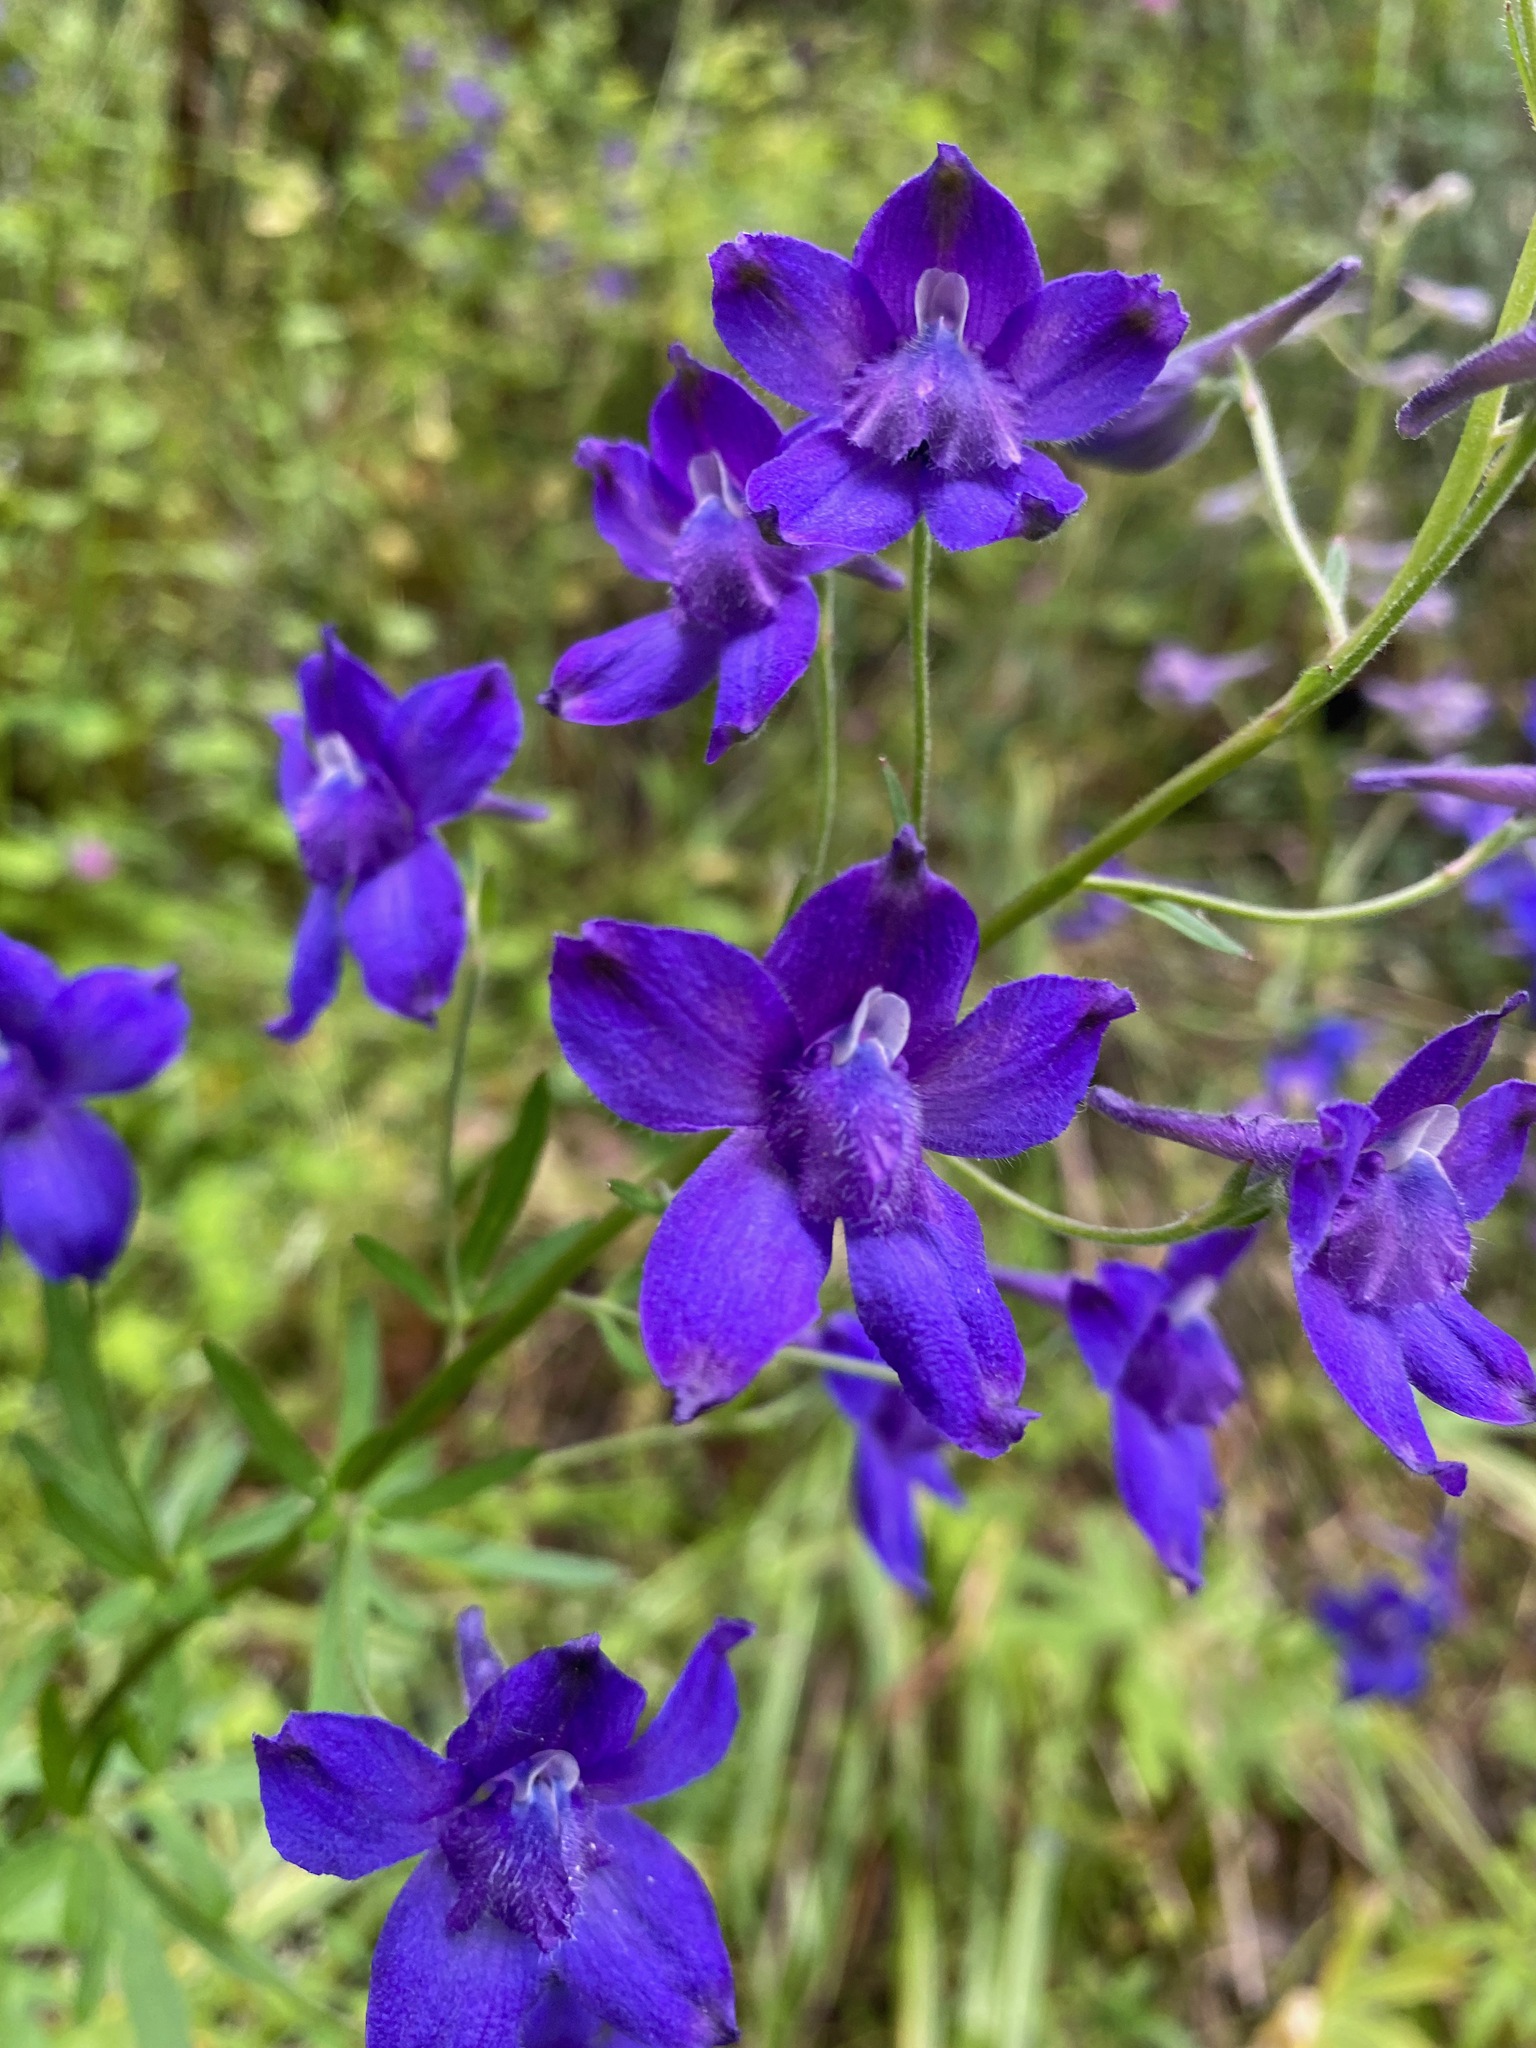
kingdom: Plantae
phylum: Tracheophyta
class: Magnoliopsida
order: Ranunculales
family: Ranunculaceae
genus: Delphinium
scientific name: Delphinium menziesii
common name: Menzies's larkspur
